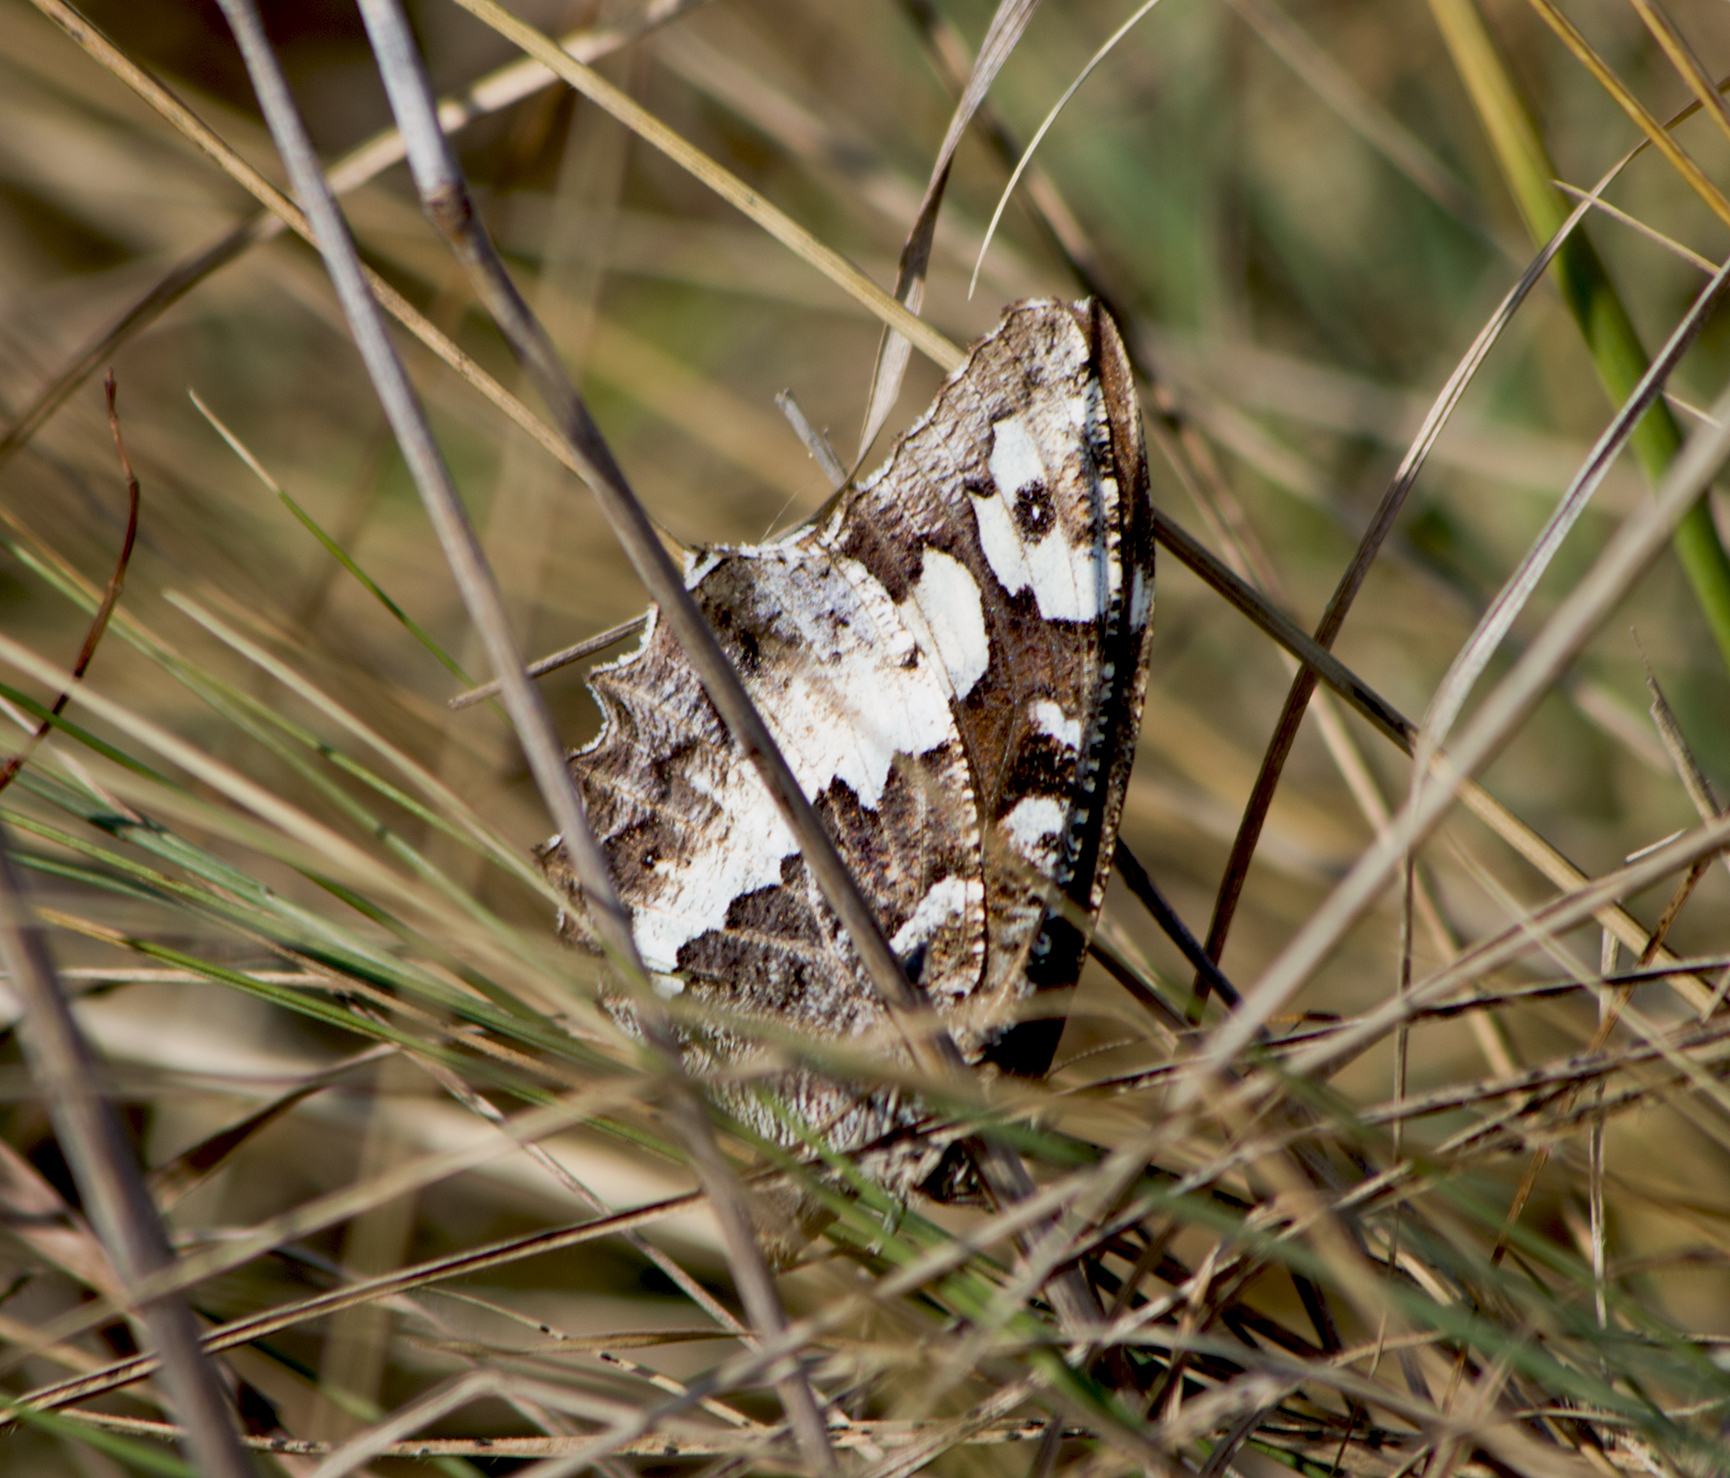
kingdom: Animalia
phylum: Arthropoda
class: Insecta
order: Lepidoptera
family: Lycaenidae
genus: Loweia
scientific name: Loweia tityrus
